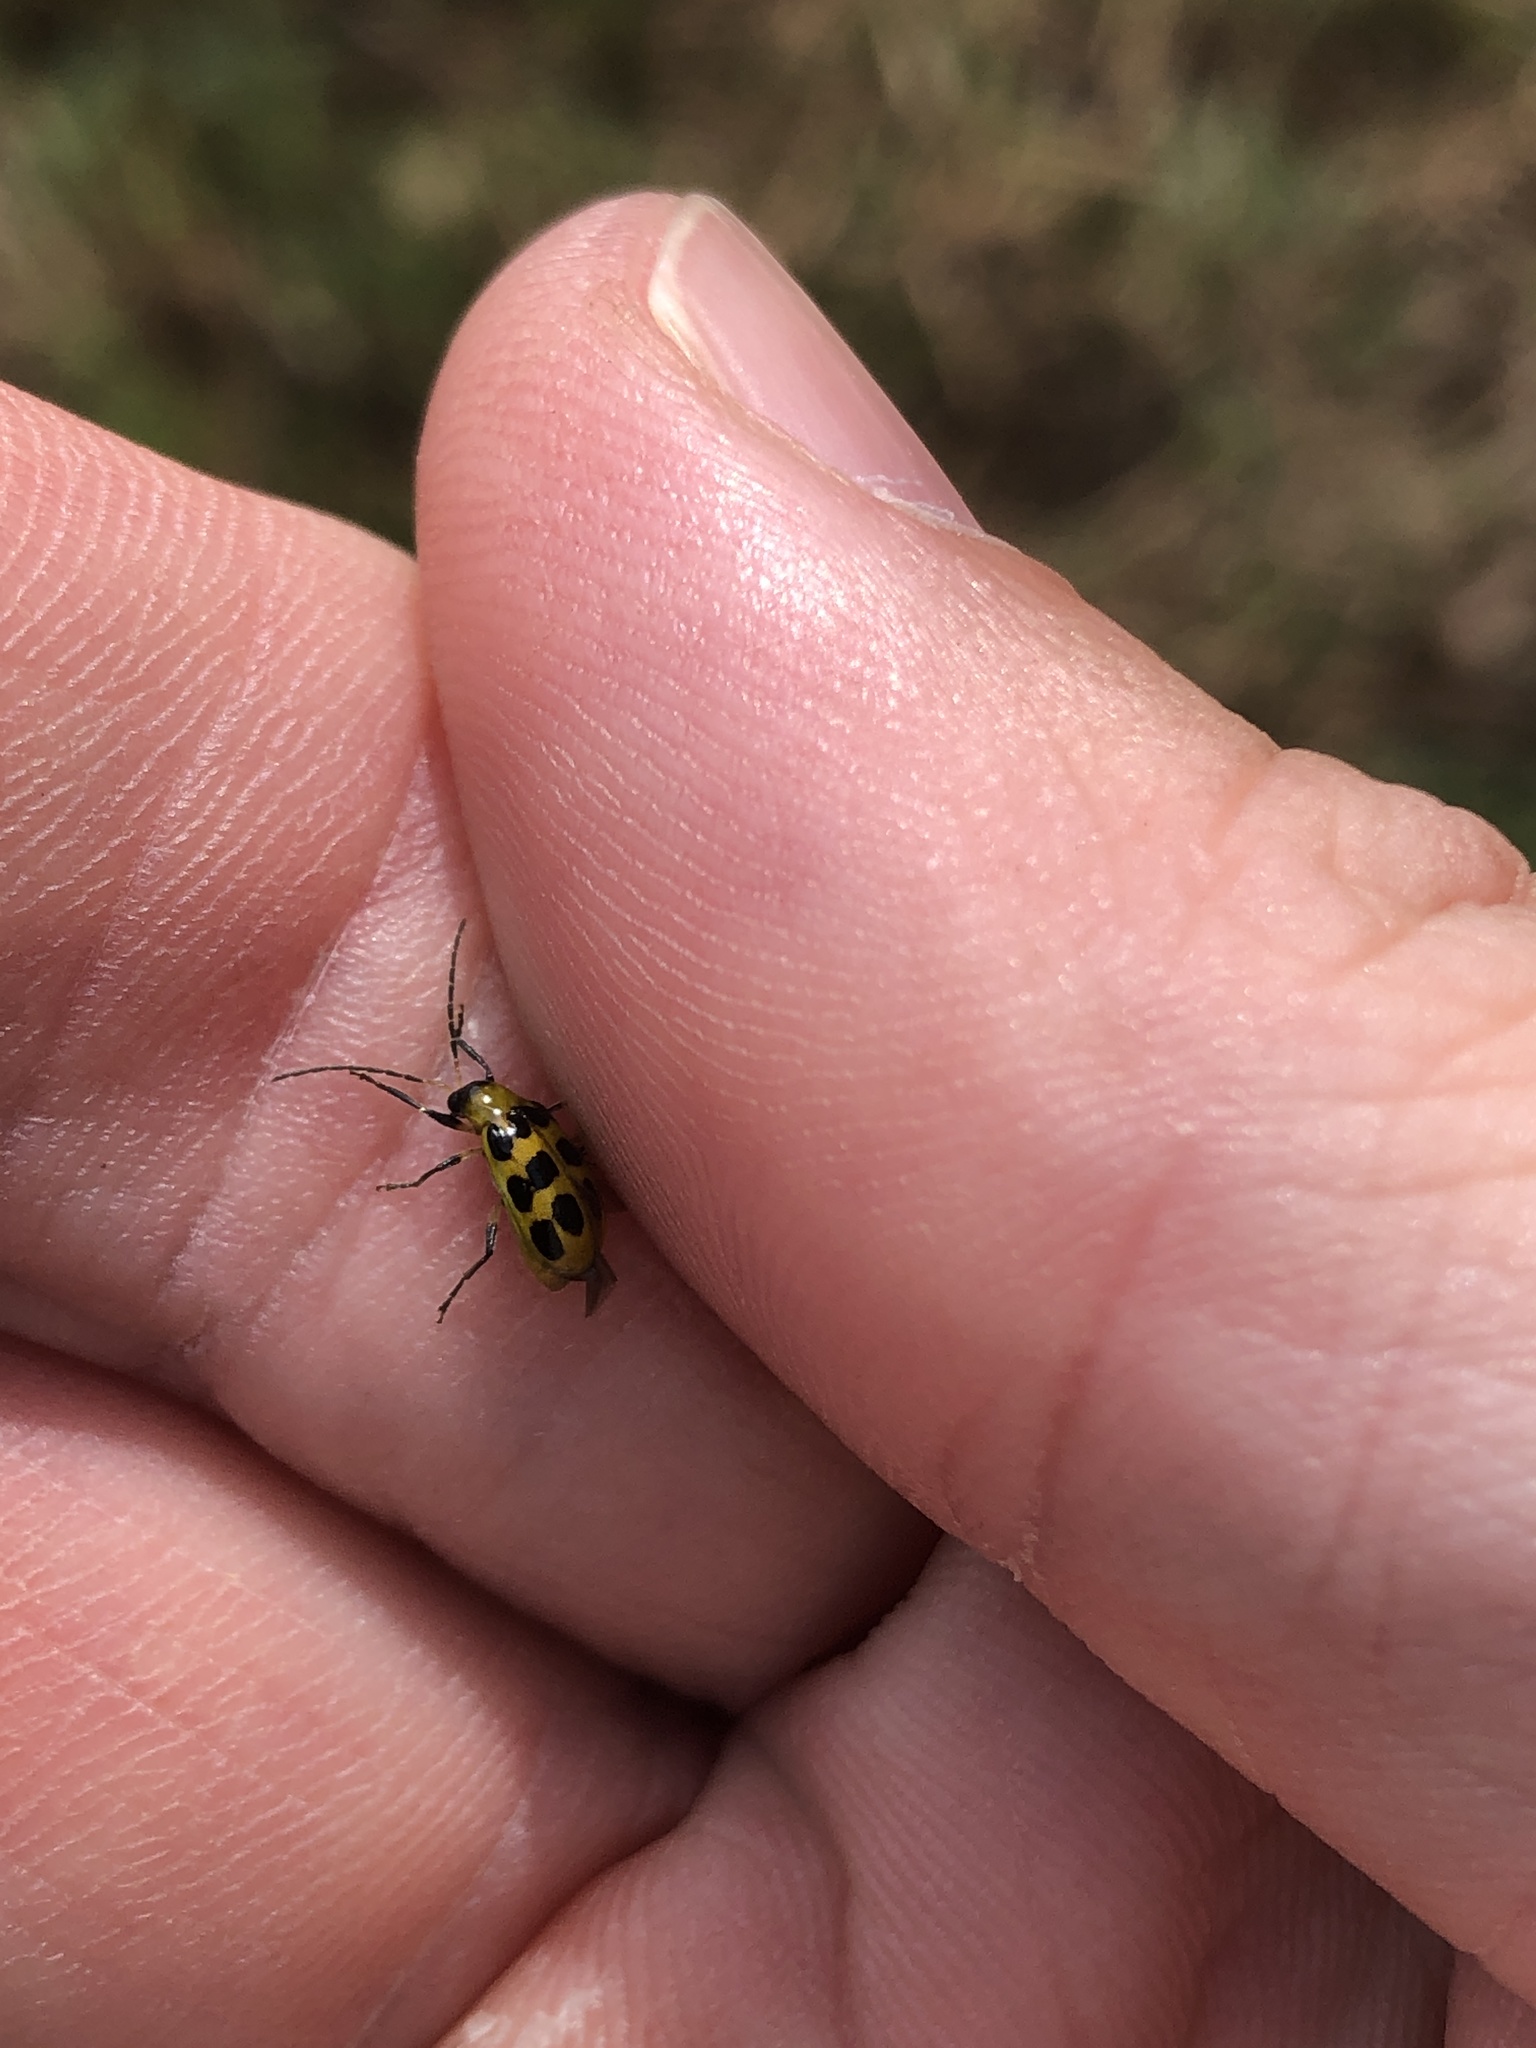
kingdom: Animalia
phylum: Arthropoda
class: Insecta
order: Coleoptera
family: Chrysomelidae
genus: Diabrotica
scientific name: Diabrotica undecimpunctata
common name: Spotted cucumber beetle
